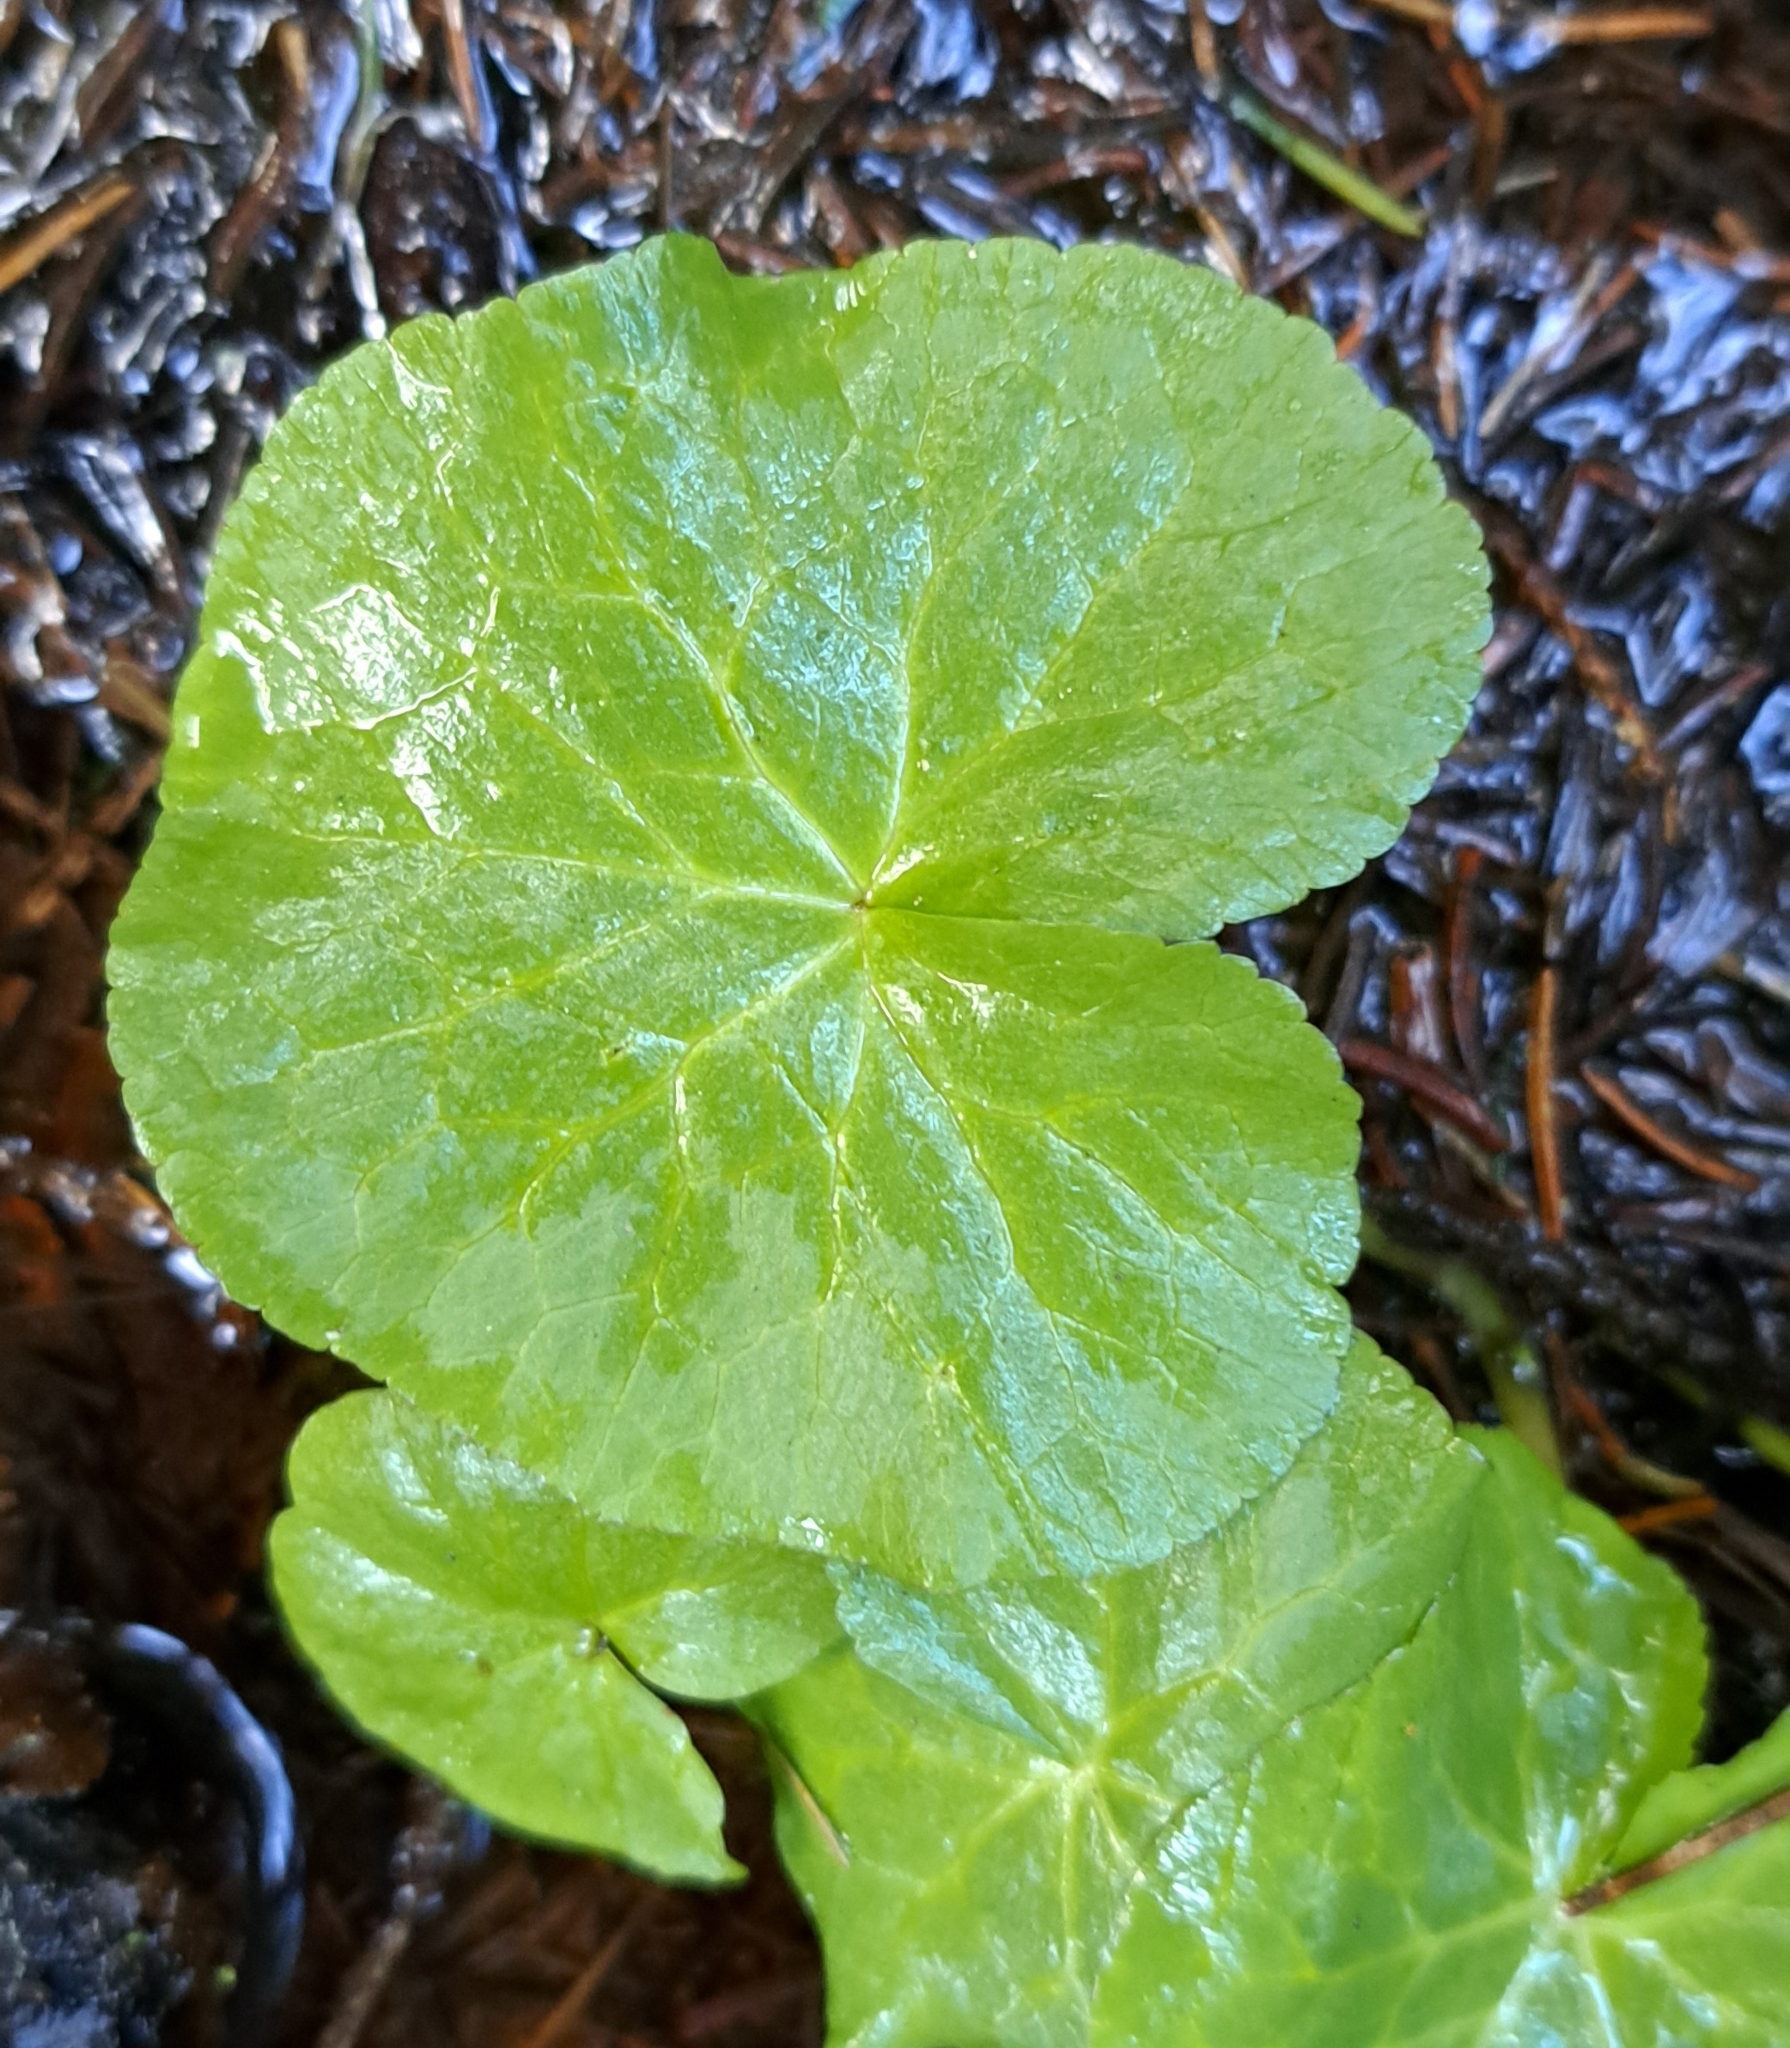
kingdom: Plantae
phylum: Tracheophyta
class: Magnoliopsida
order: Ranunculales
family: Ranunculaceae
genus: Caltha
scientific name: Caltha palustris
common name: Marsh marigold
